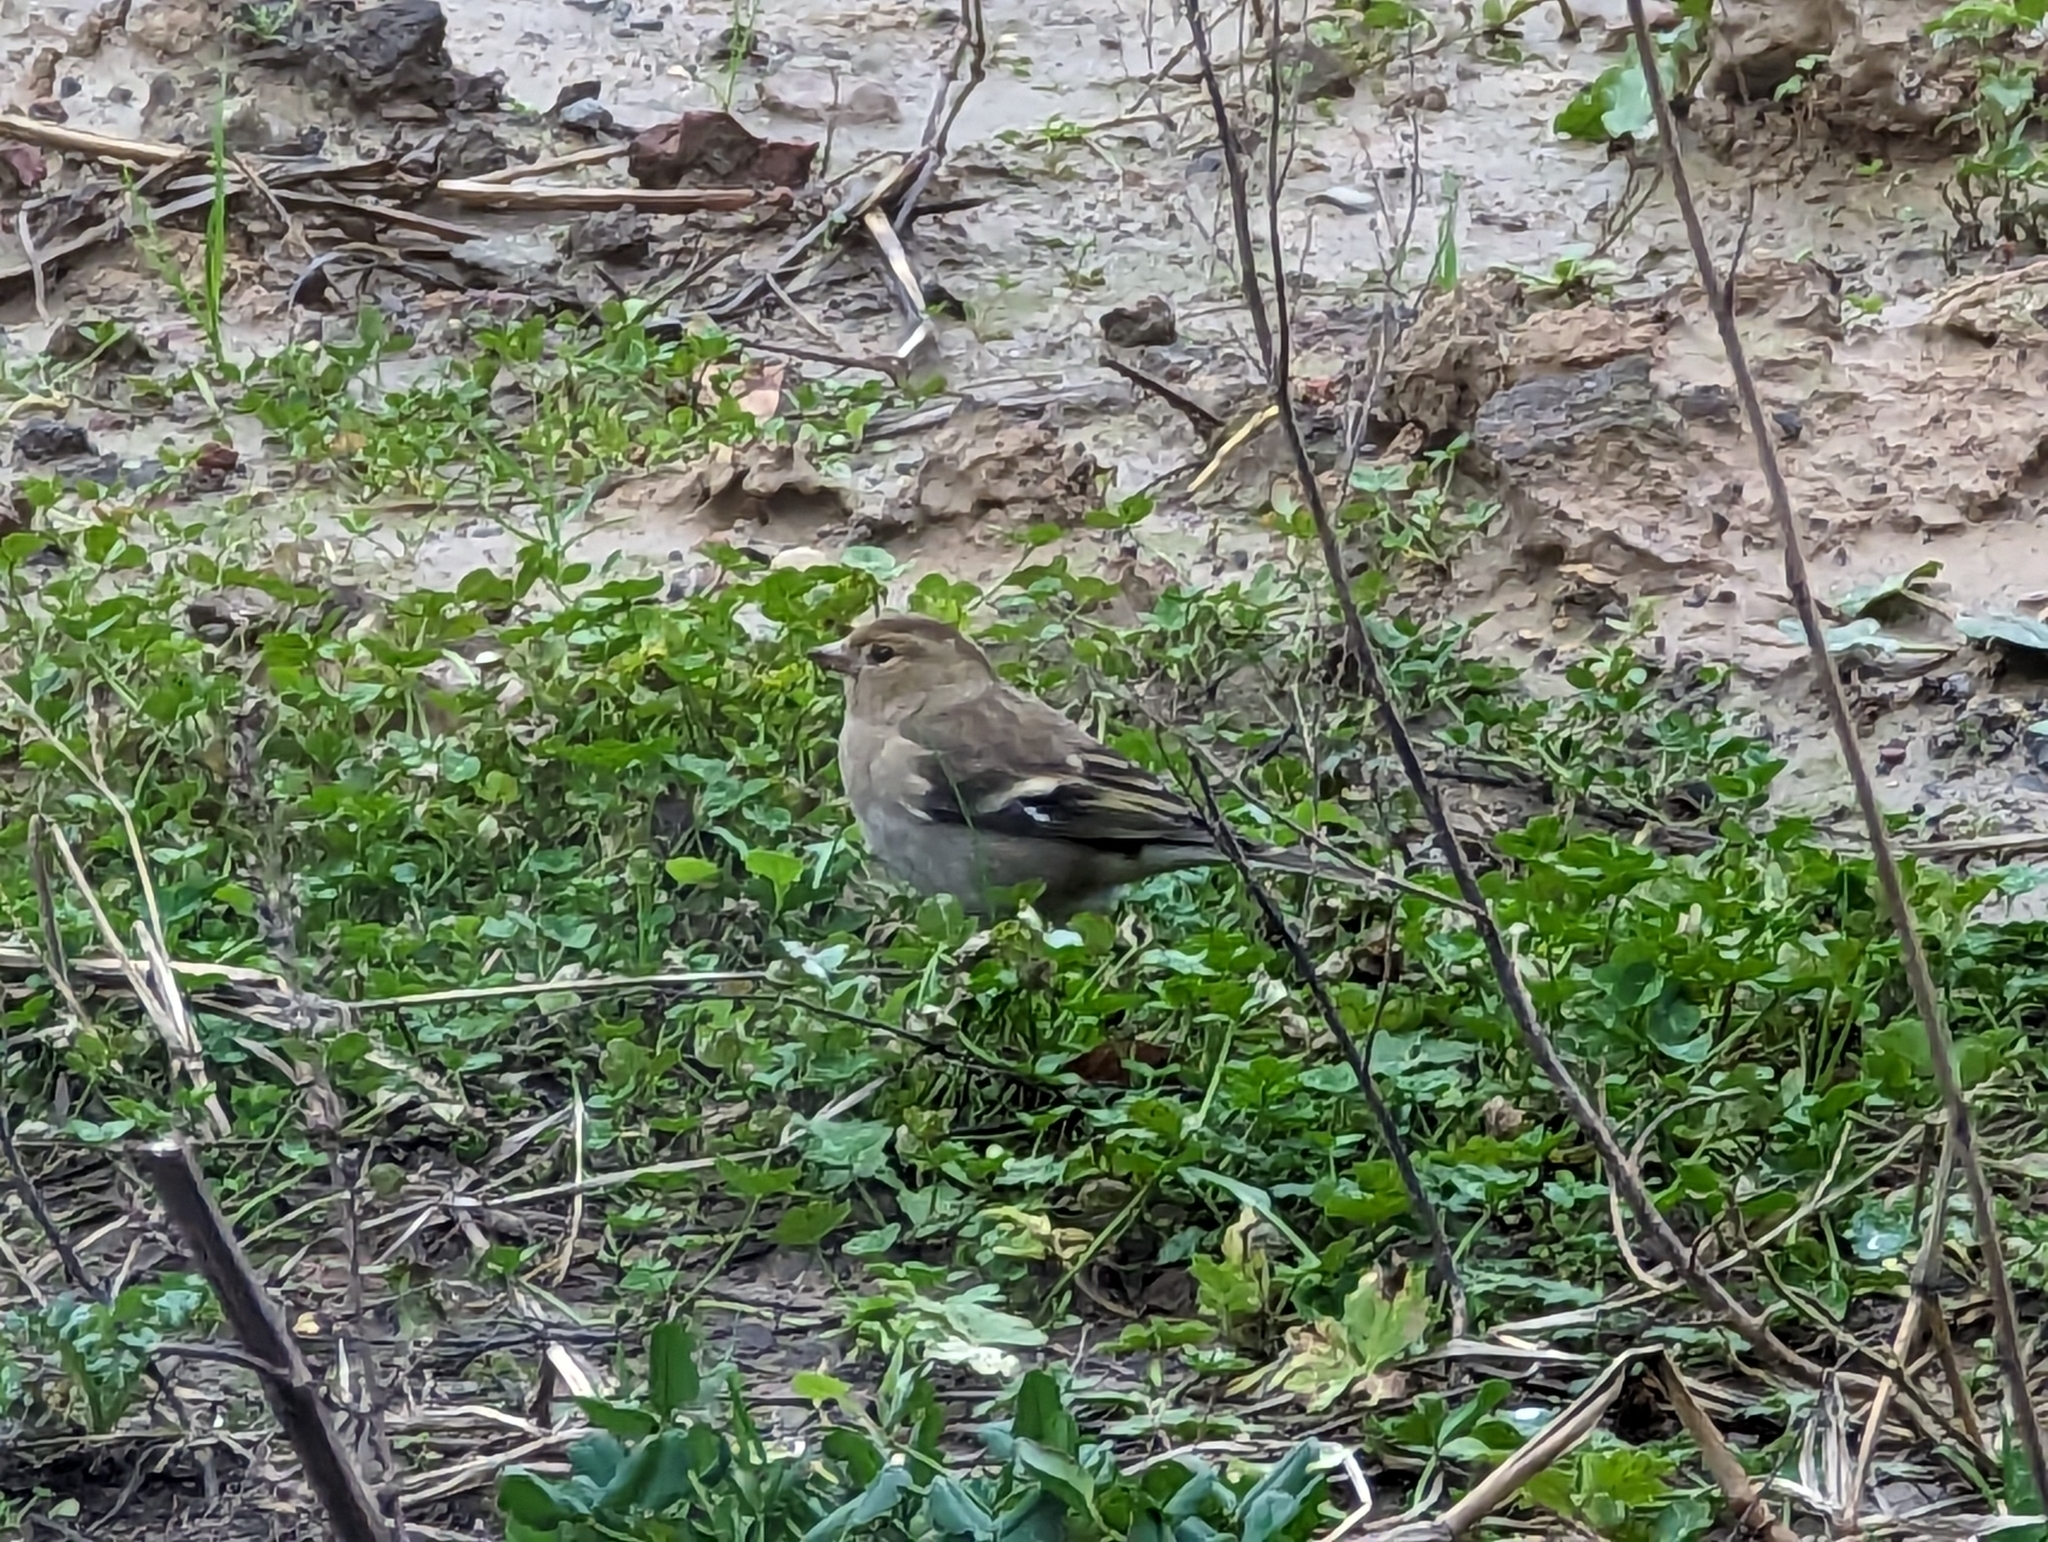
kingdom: Animalia
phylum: Chordata
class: Aves
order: Passeriformes
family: Fringillidae
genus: Fringilla
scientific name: Fringilla coelebs
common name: Common chaffinch
